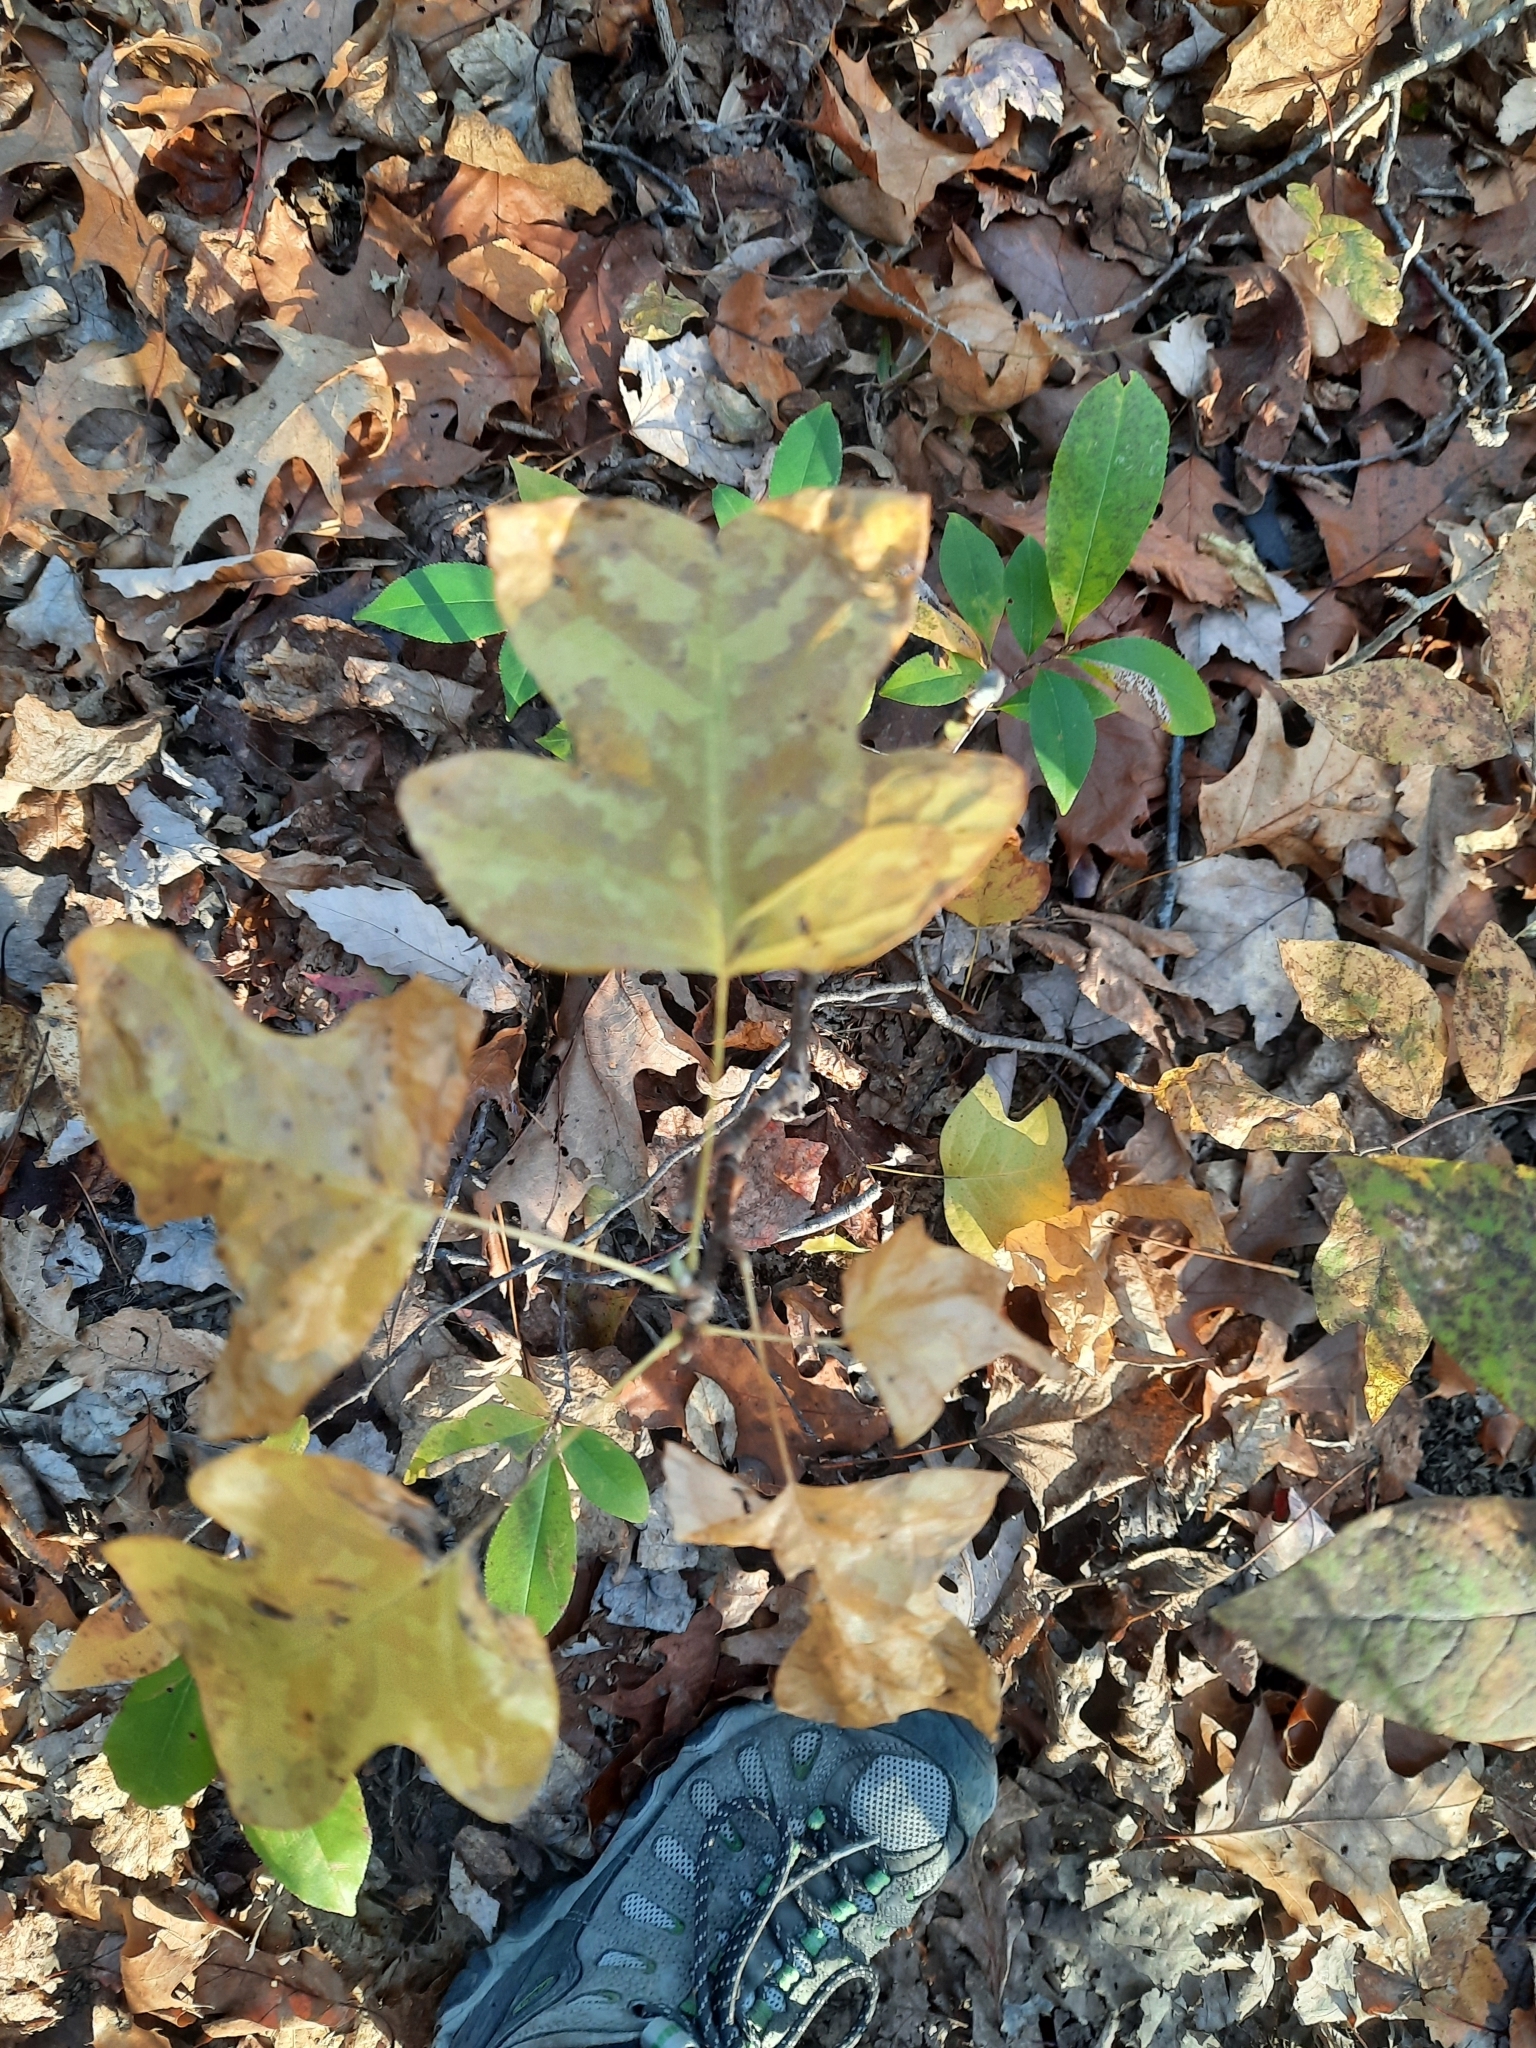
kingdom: Plantae
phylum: Tracheophyta
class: Magnoliopsida
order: Magnoliales
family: Magnoliaceae
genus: Liriodendron
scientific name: Liriodendron tulipifera
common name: Tulip tree
